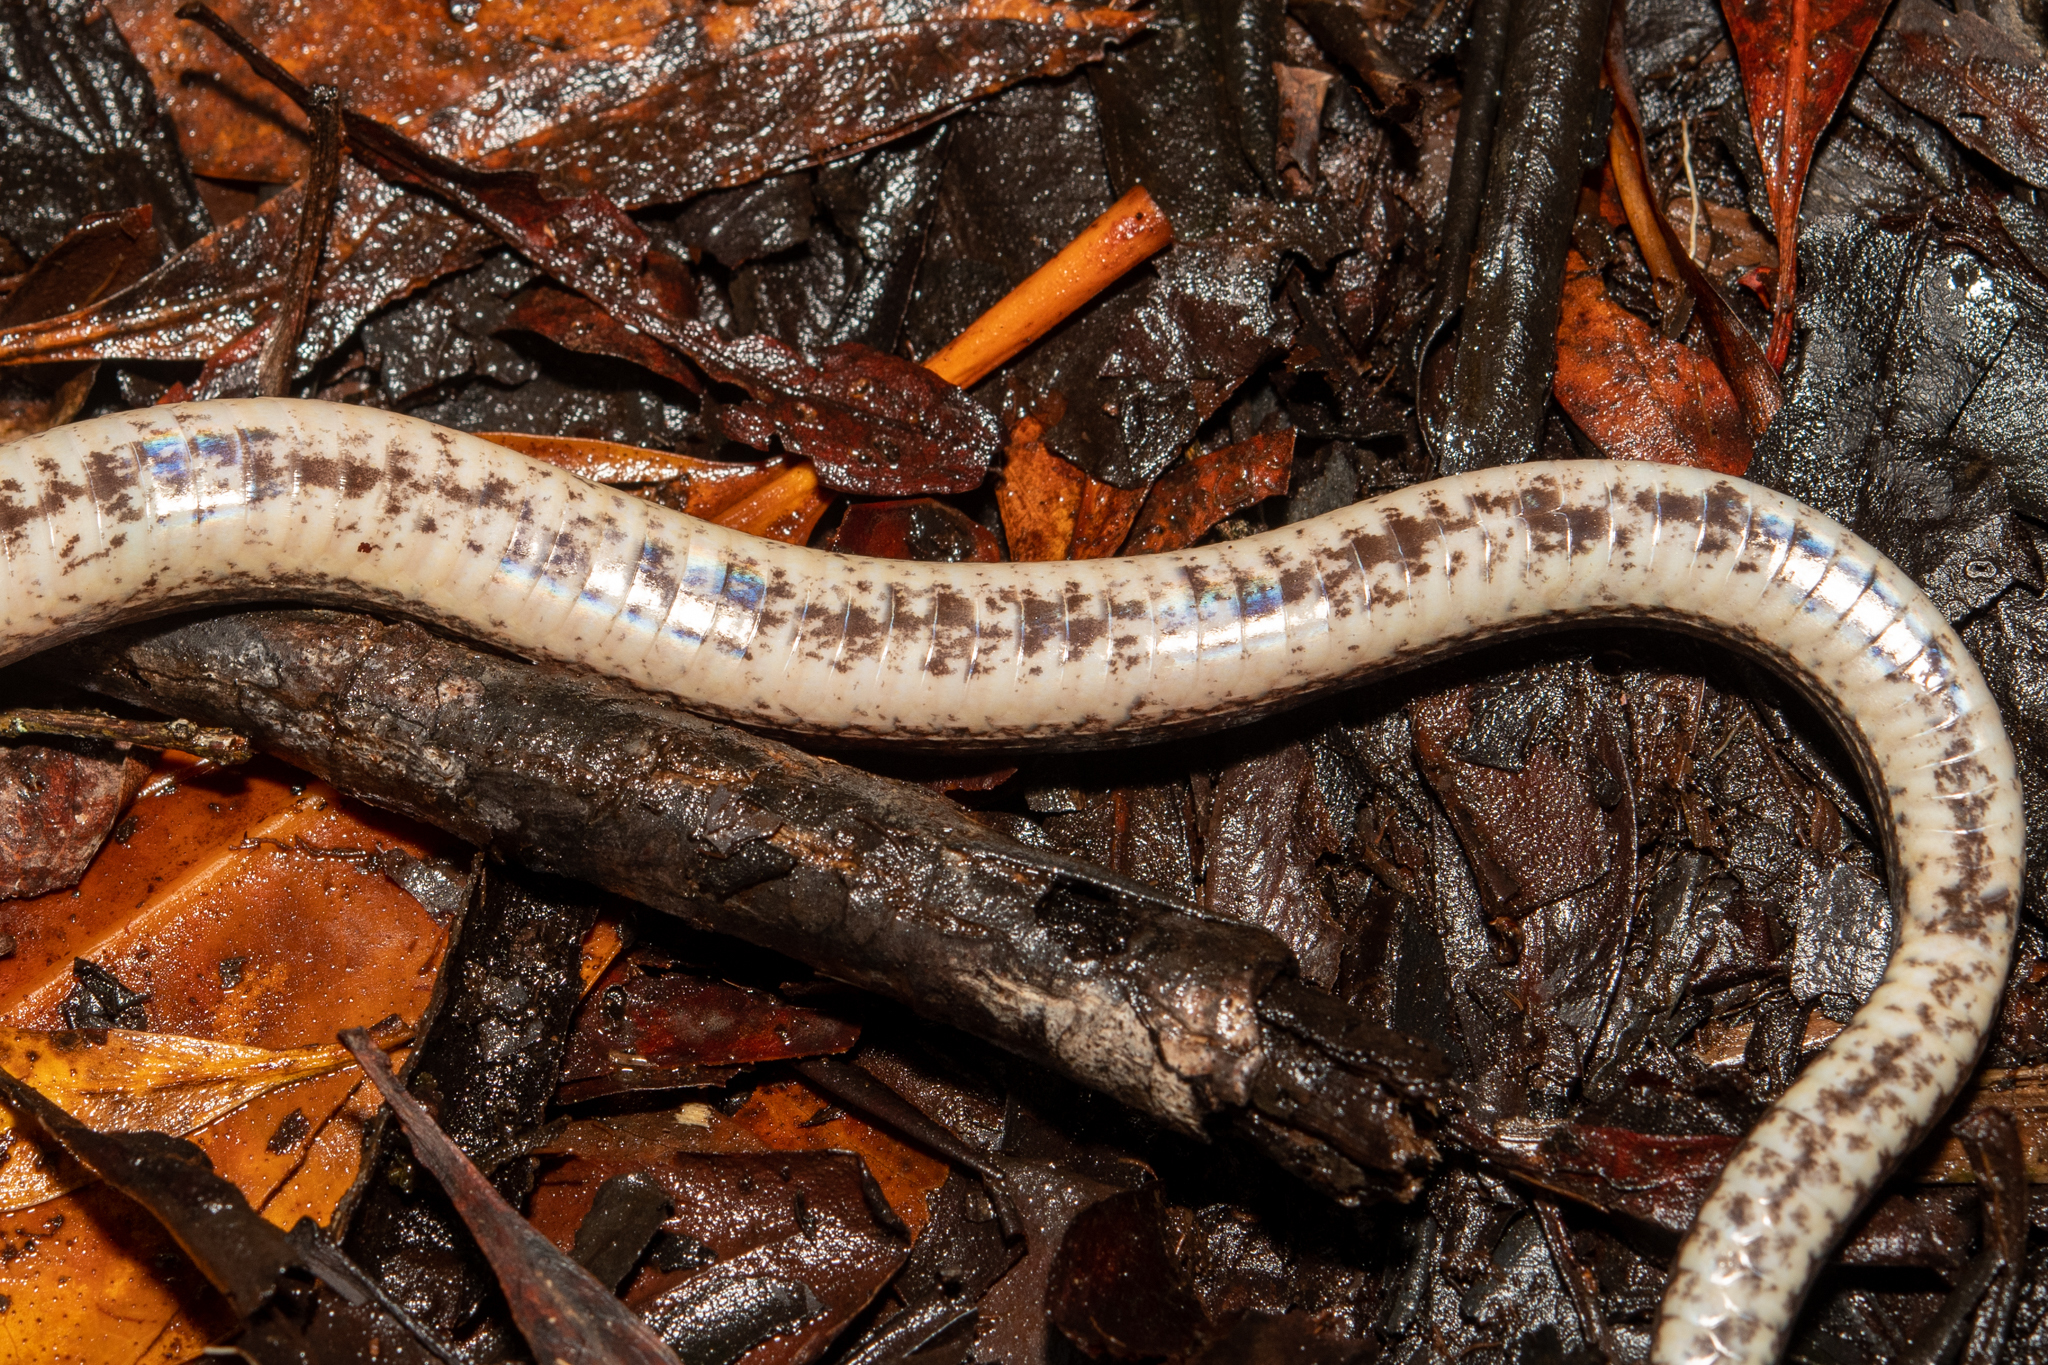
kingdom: Animalia
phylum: Chordata
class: Squamata
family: Colubridae
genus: Tretanorhinus
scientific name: Tretanorhinus nigroluteus
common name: Orangebelly swamp snake
